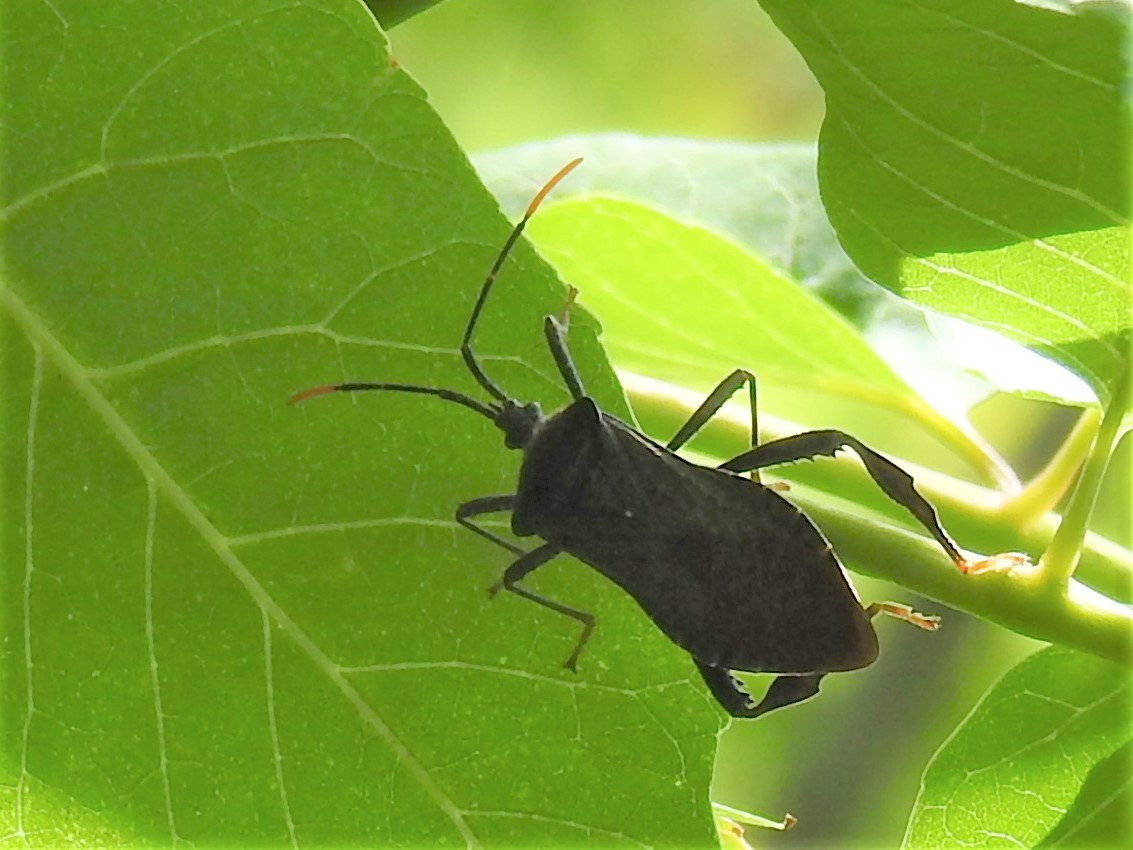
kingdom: Animalia
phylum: Arthropoda
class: Insecta
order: Hemiptera
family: Coreidae
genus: Acanthocephala
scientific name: Acanthocephala terminalis
